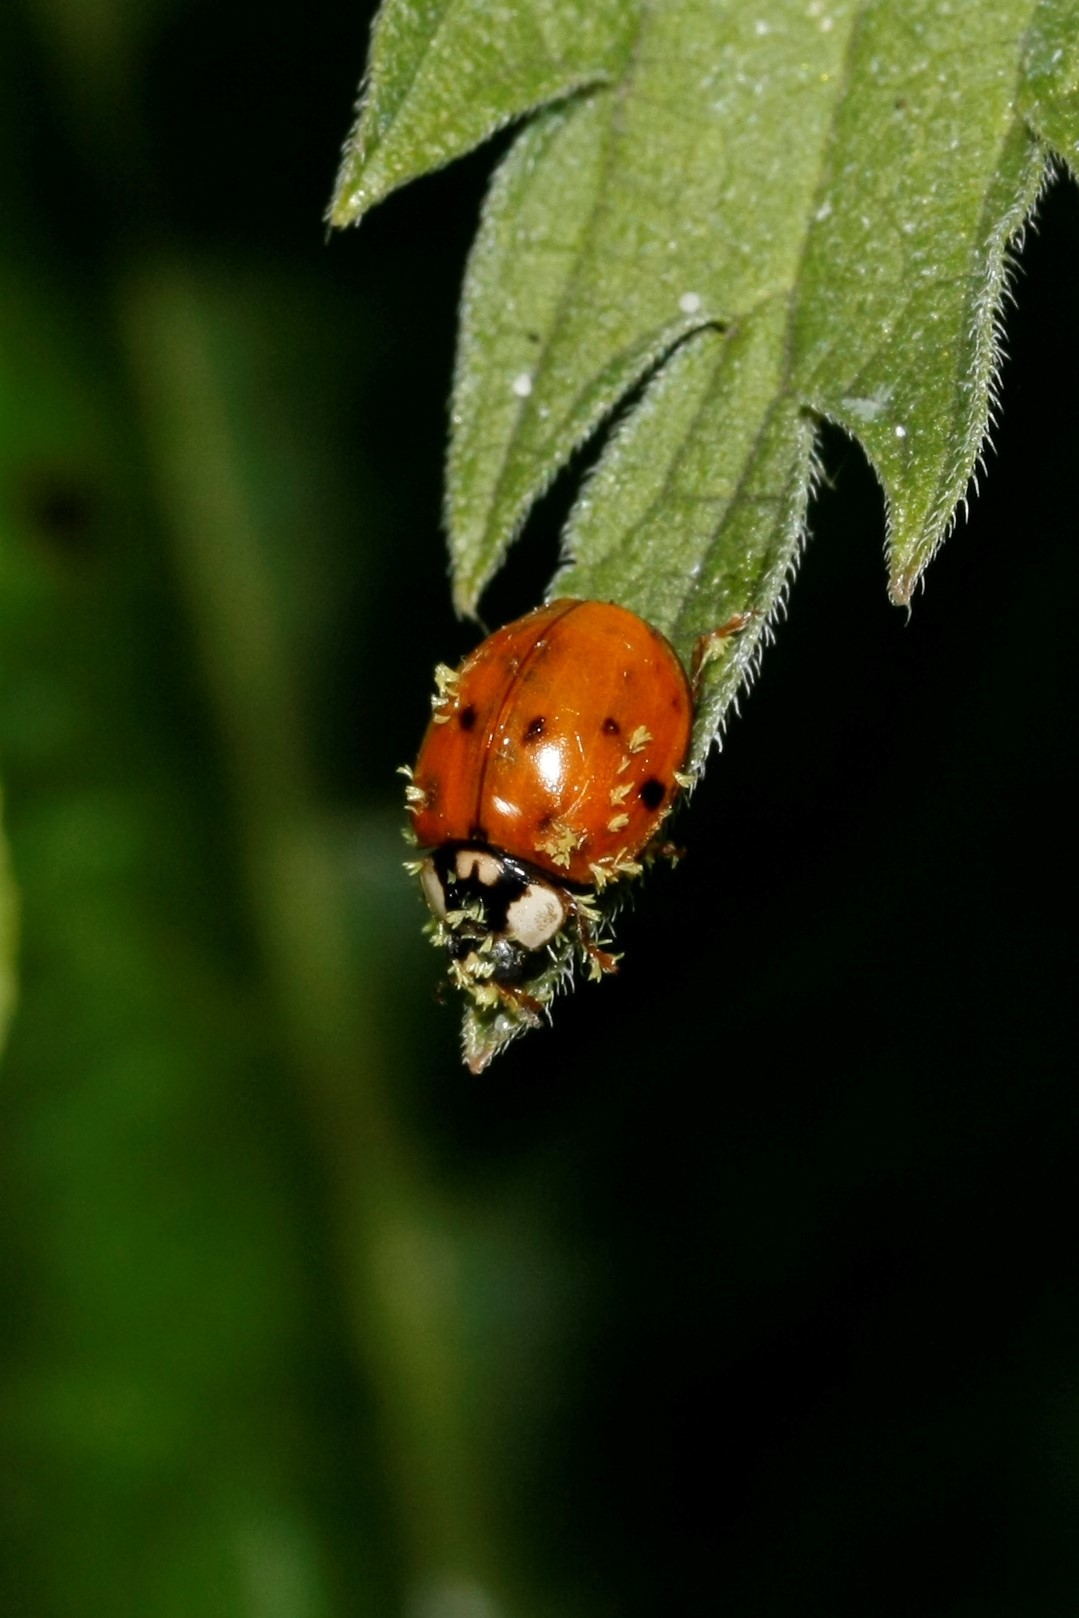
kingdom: Fungi
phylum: Ascomycota
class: Laboulbeniomycetes
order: Laboulbeniales
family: Laboulbeniaceae
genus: Hesperomyces
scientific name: Hesperomyces harmoniae
